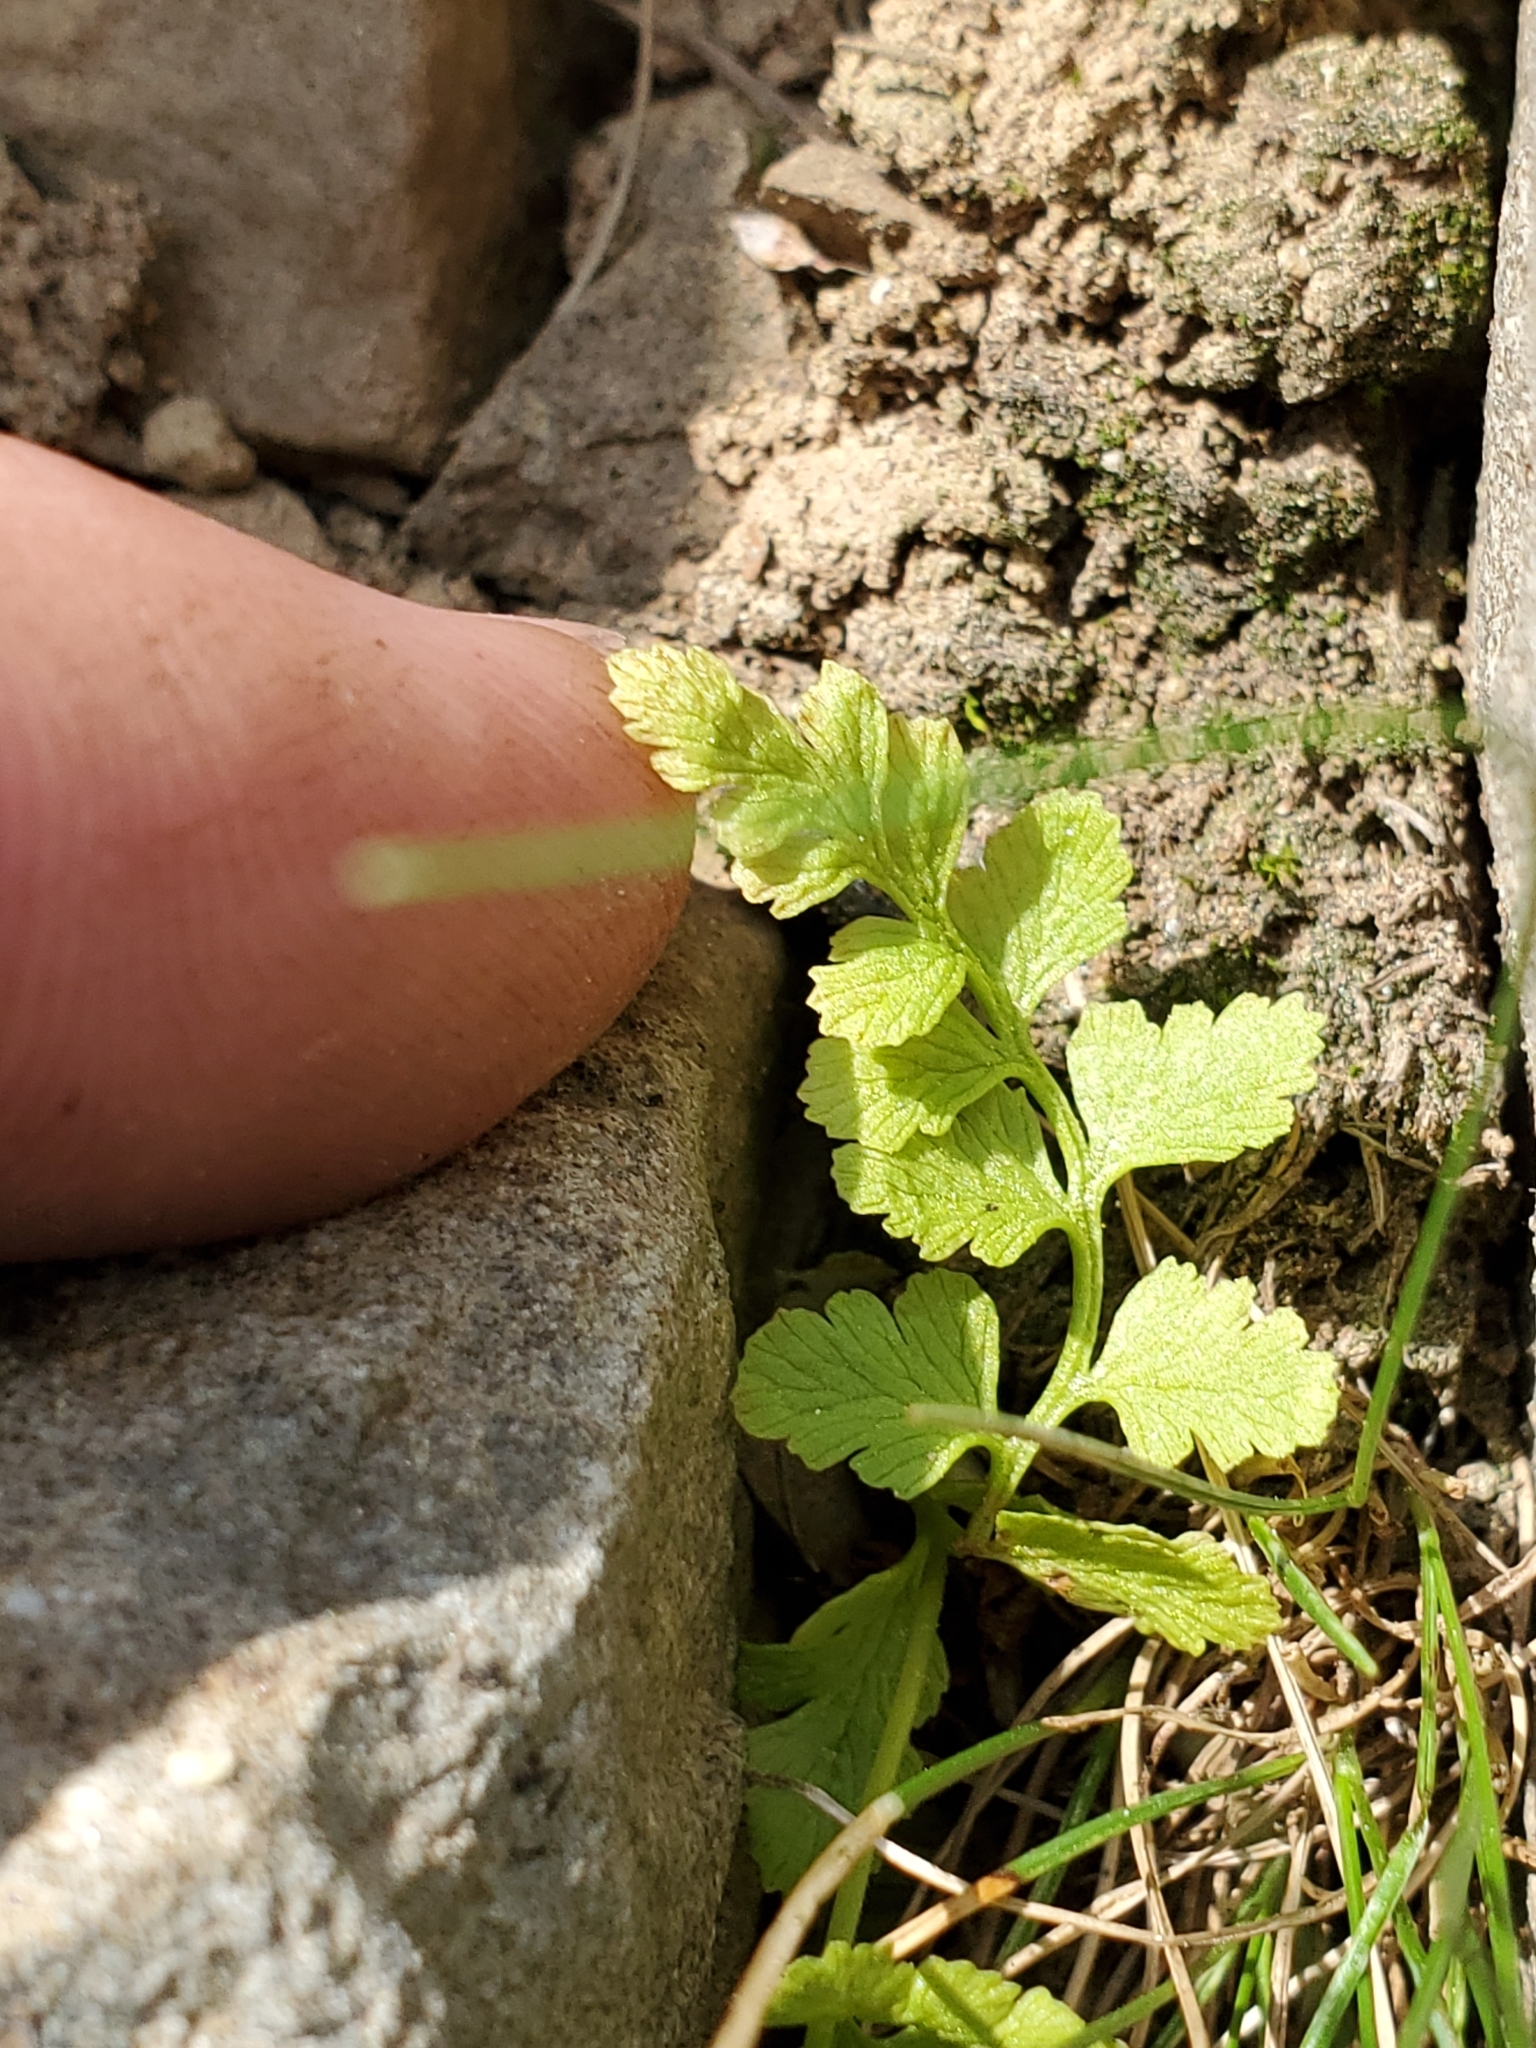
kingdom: Plantae
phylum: Tracheophyta
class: Polypodiopsida
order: Polypodiales
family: Cystopteridaceae
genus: Cystopteris
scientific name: Cystopteris fragilis
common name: Brittle bladder fern
